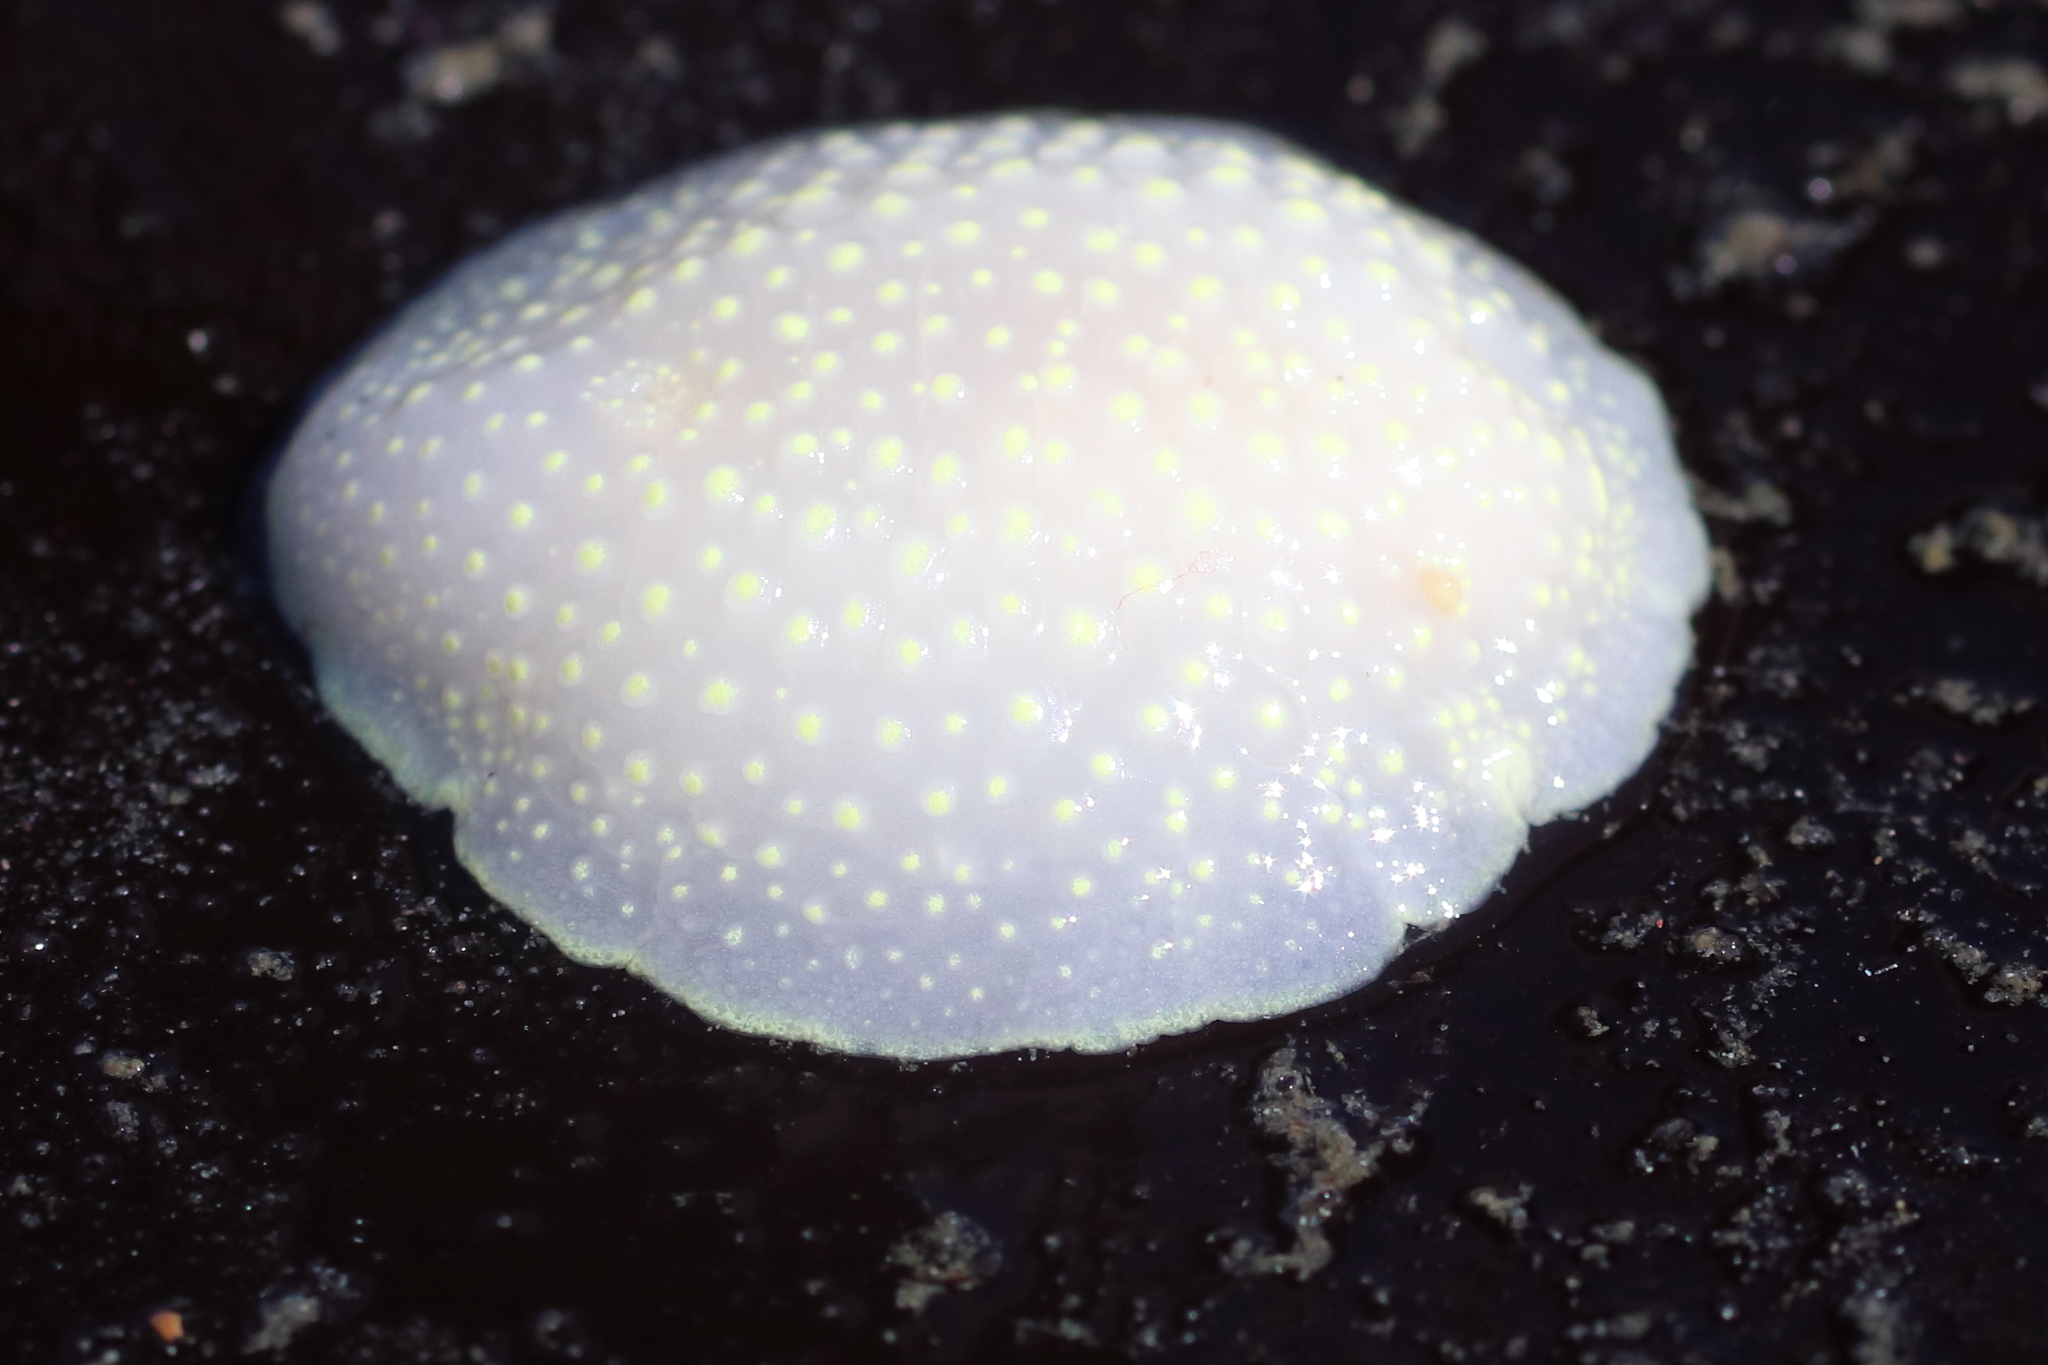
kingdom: Animalia
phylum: Mollusca
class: Gastropoda
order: Nudibranchia
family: Cadlinidae
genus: Cadlina
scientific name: Cadlina luteomarginata
